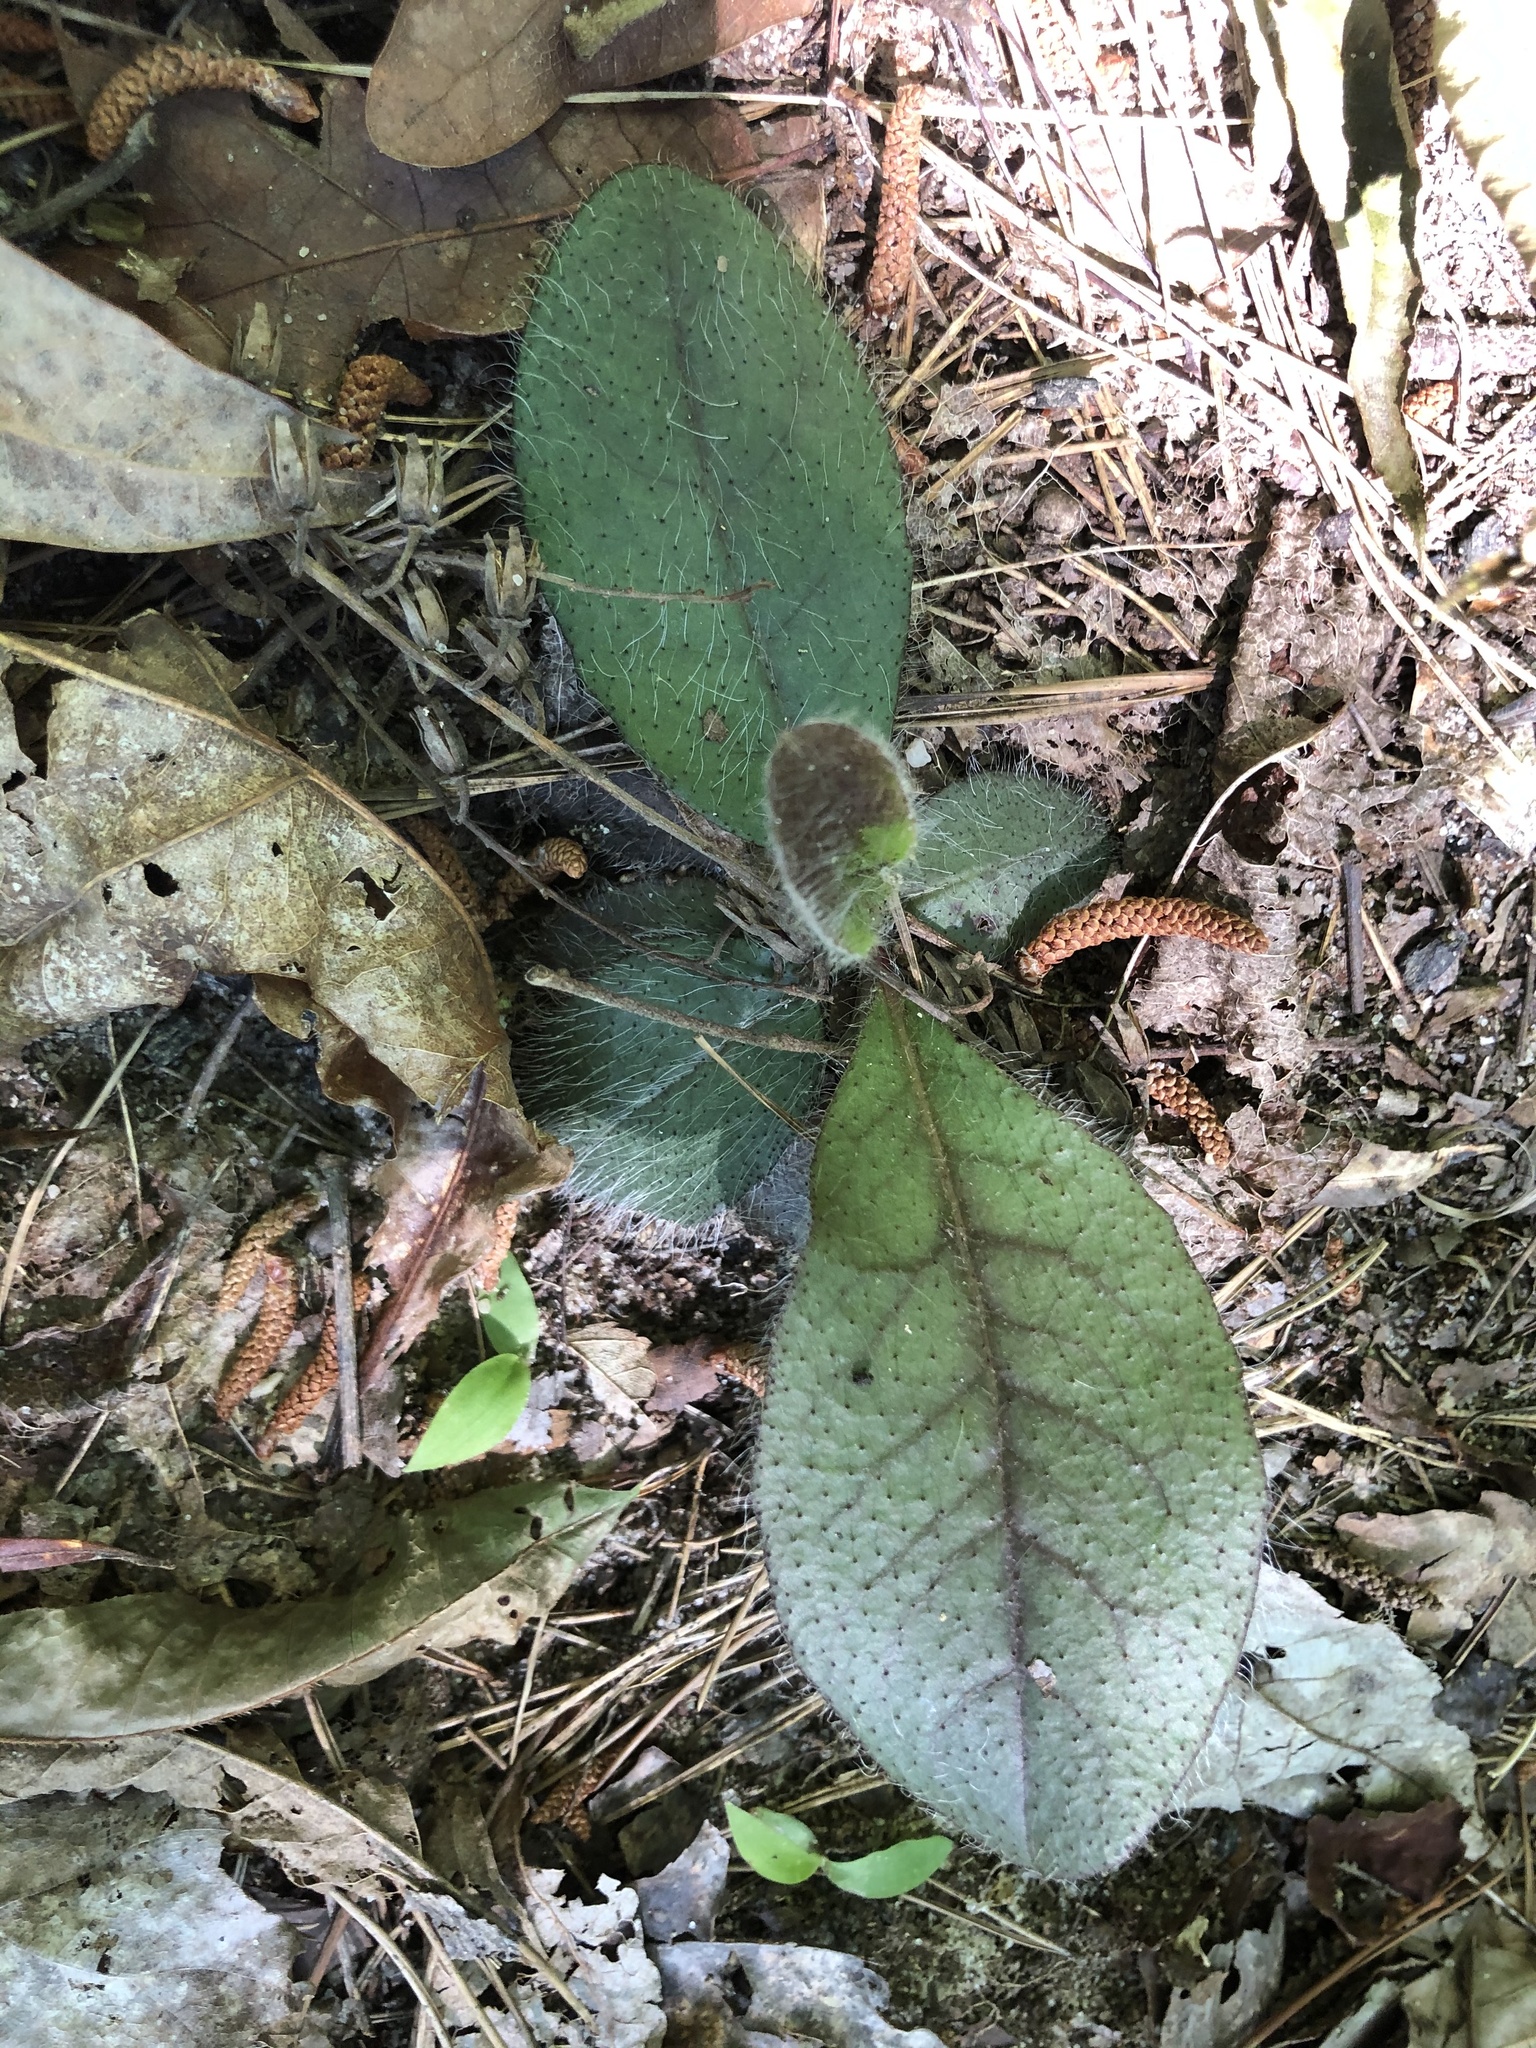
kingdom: Plantae
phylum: Tracheophyta
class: Magnoliopsida
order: Asterales
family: Asteraceae
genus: Hieracium
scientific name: Hieracium gronovii
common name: Beaked hawkweed
